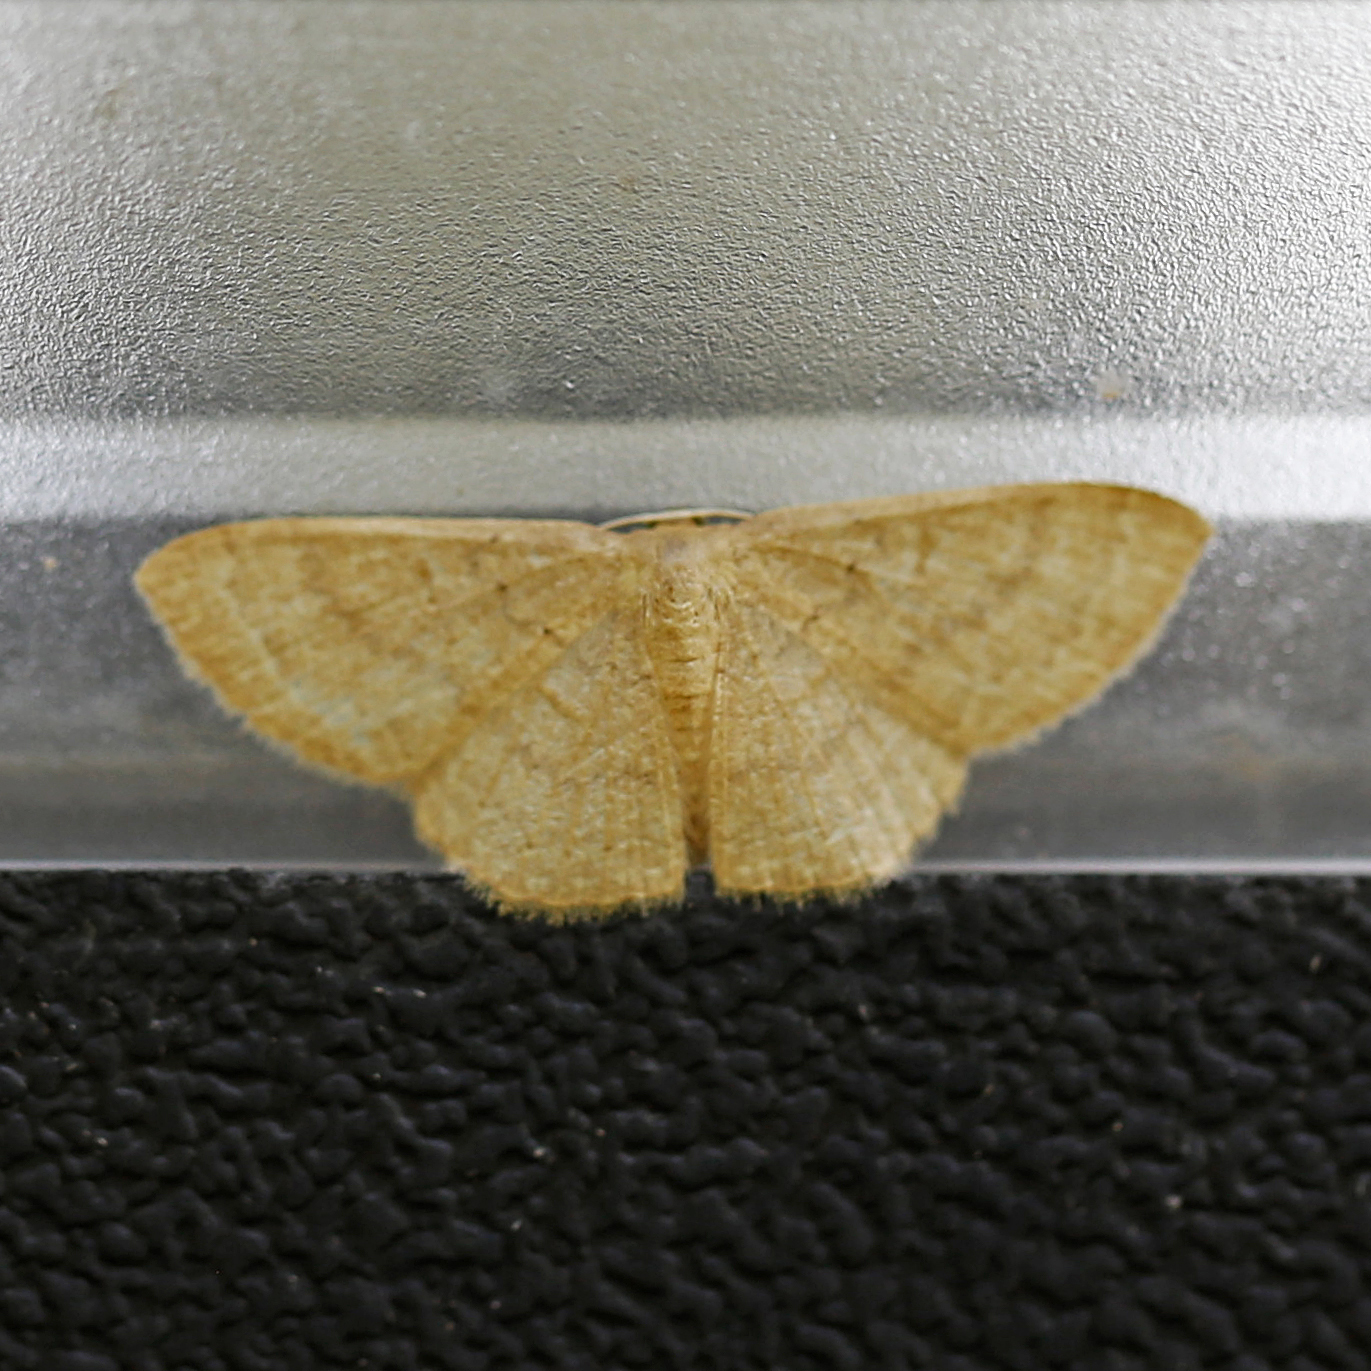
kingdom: Animalia
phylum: Arthropoda
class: Insecta
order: Lepidoptera
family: Geometridae
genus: Pleuroprucha
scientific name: Pleuroprucha insulsaria
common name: Common tan wave
